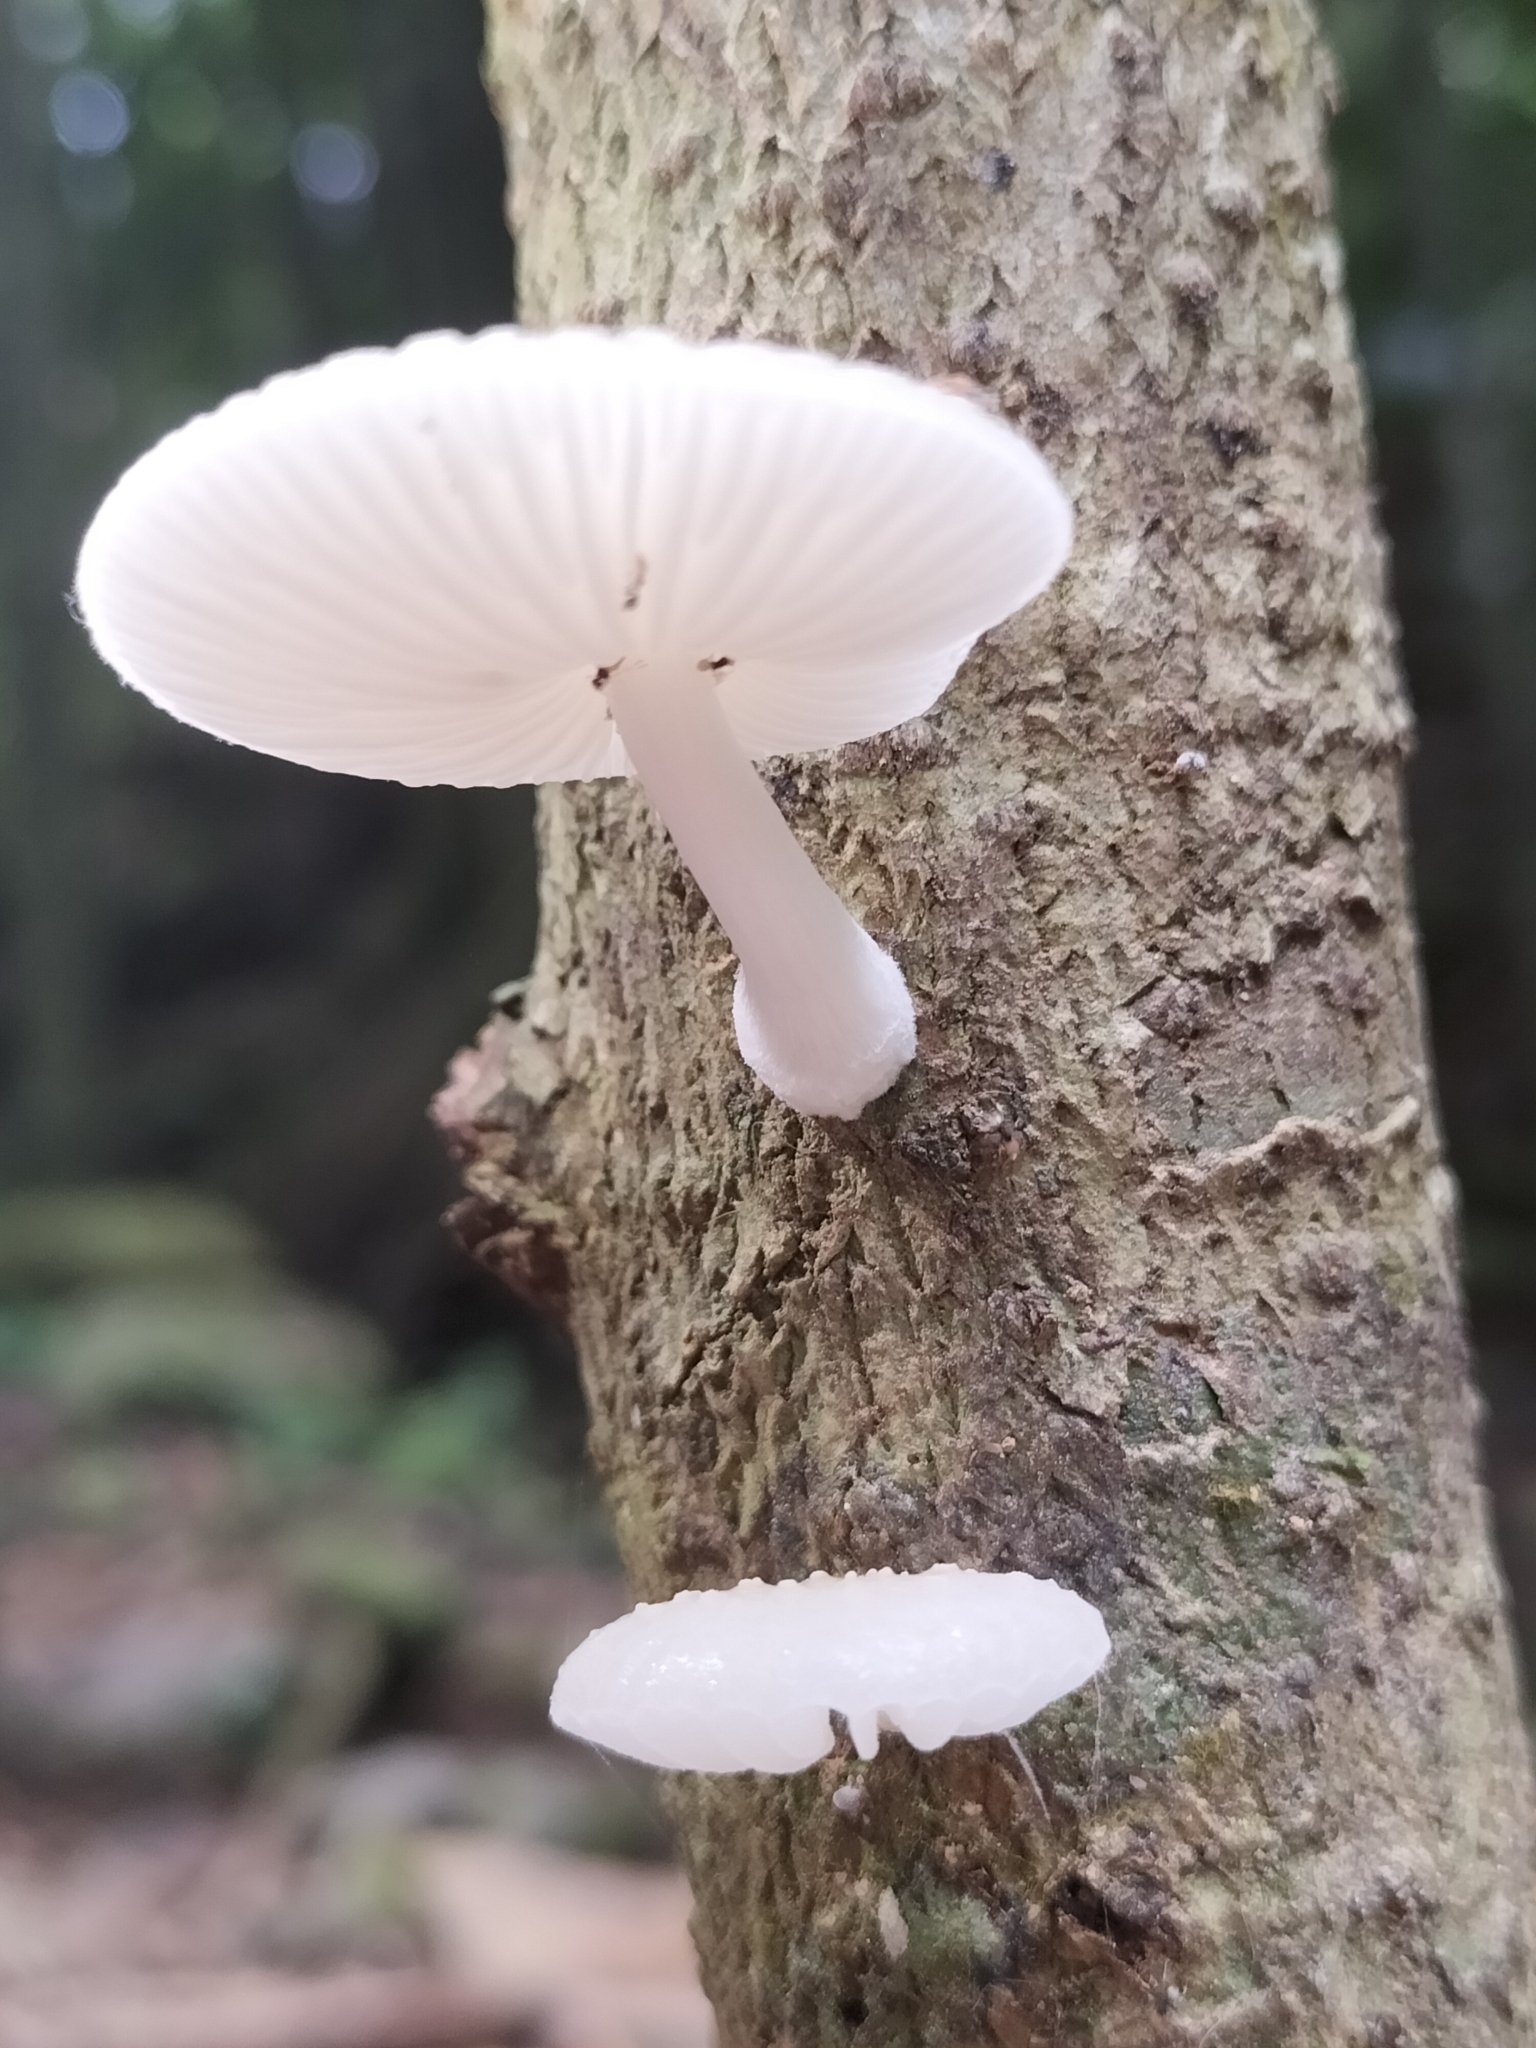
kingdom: Fungi
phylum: Basidiomycota
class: Agaricomycetes
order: Agaricales
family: Physalacriaceae
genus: Oudemansiella
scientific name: Oudemansiella exannulata
